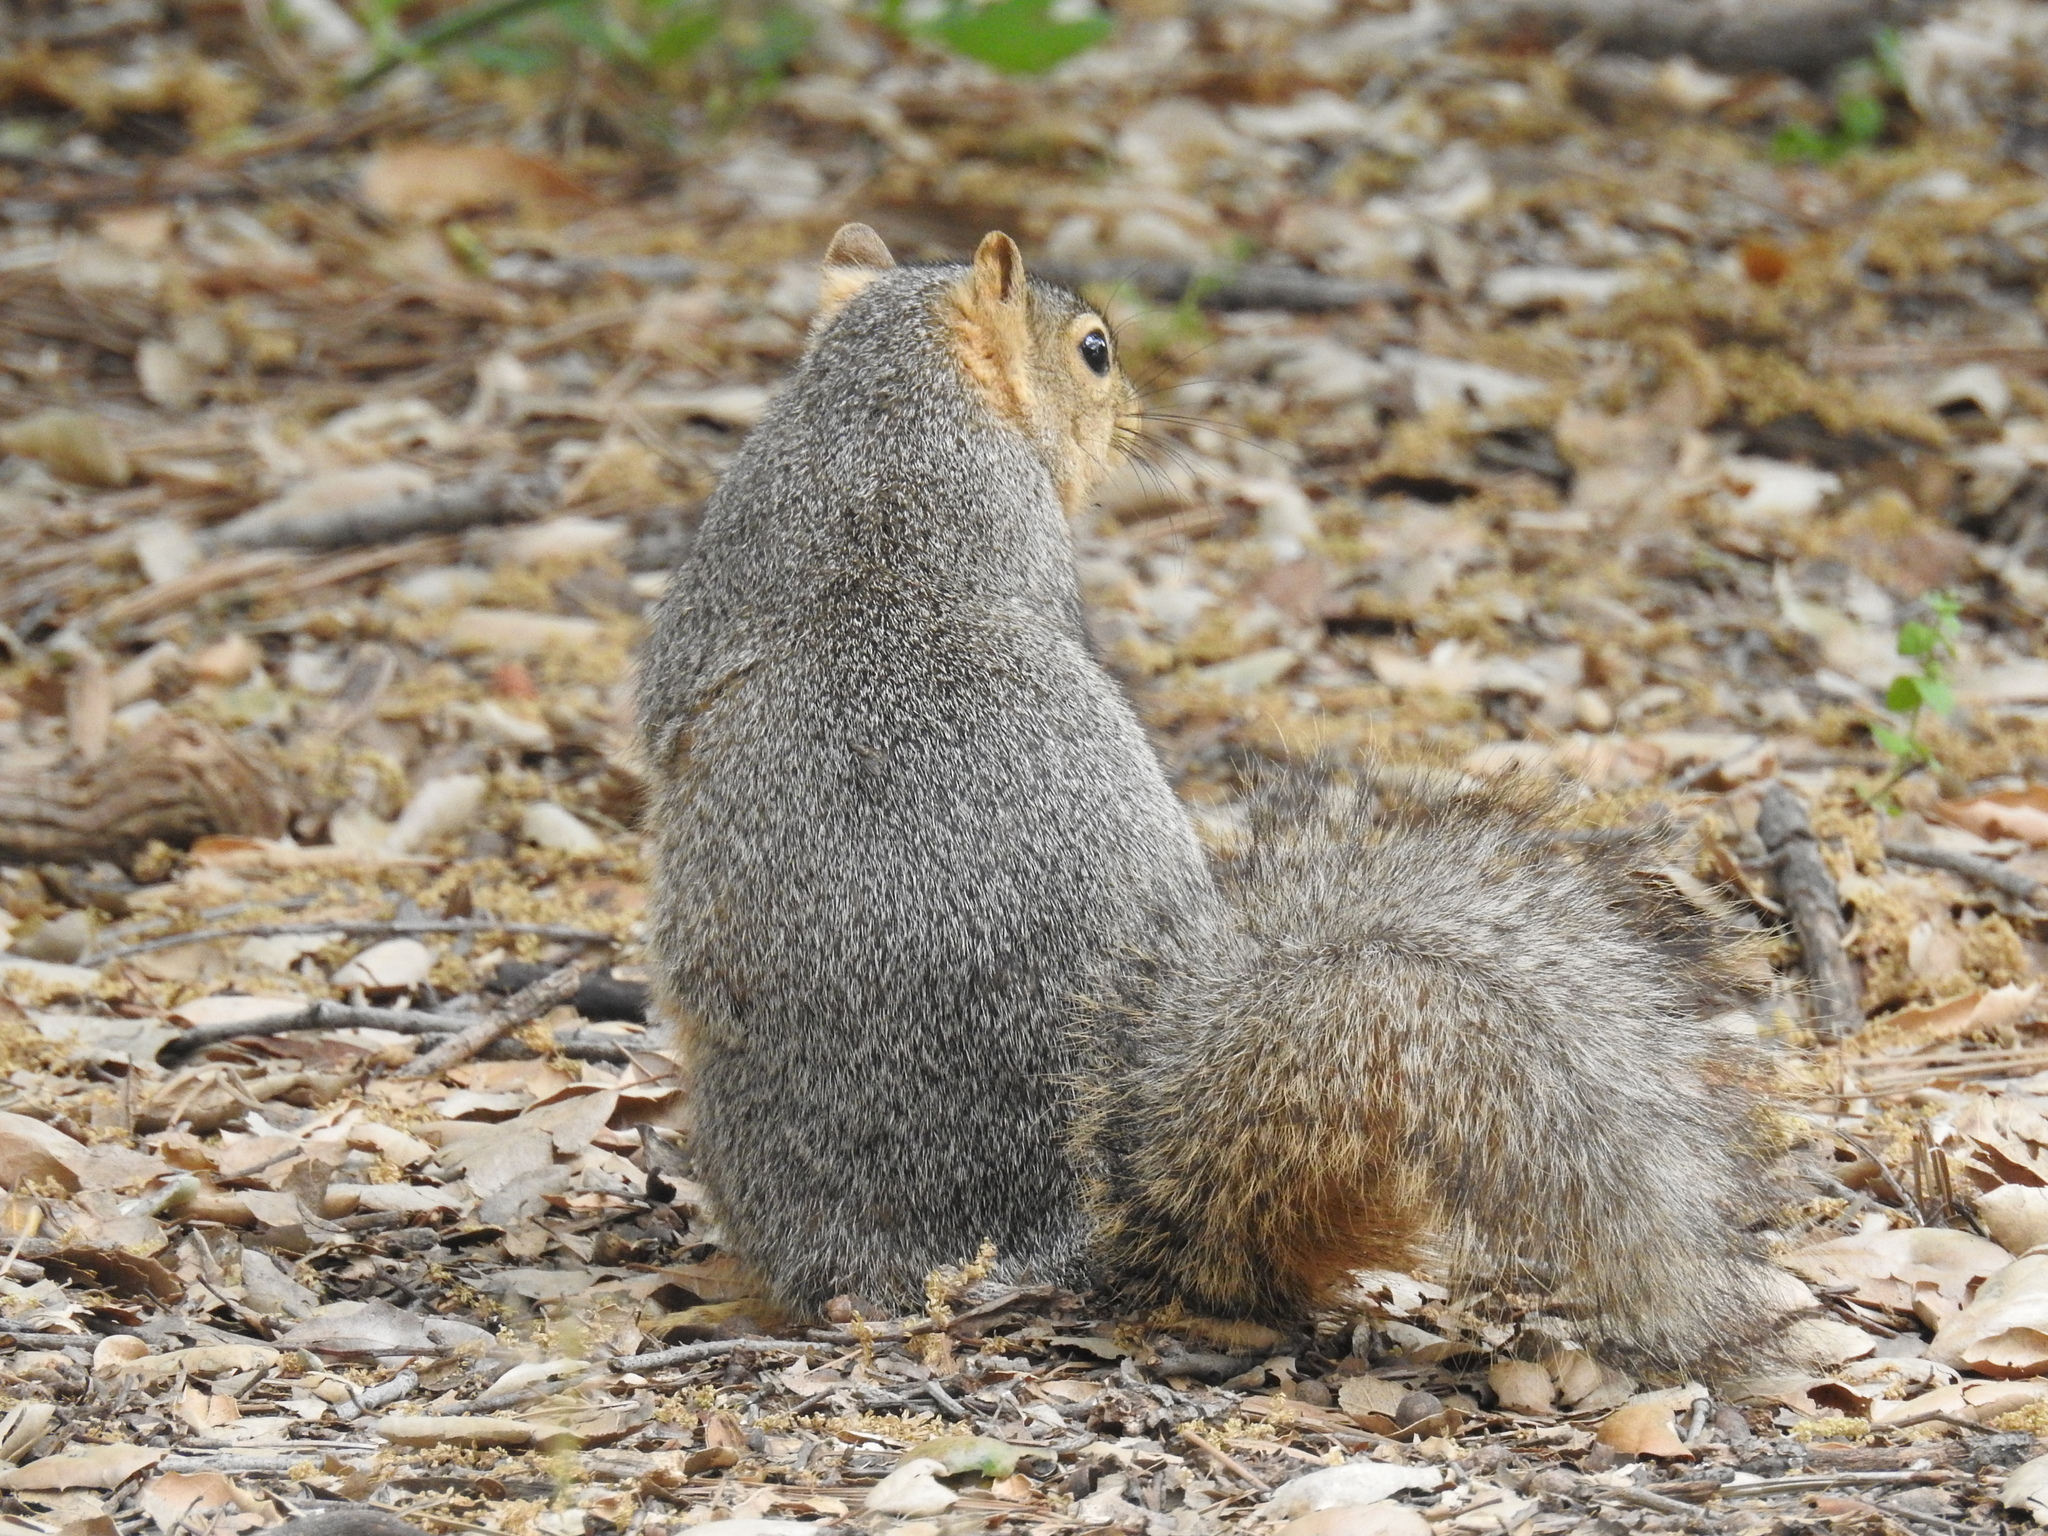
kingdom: Animalia
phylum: Chordata
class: Mammalia
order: Rodentia
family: Sciuridae
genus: Sciurus
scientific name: Sciurus niger
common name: Fox squirrel
